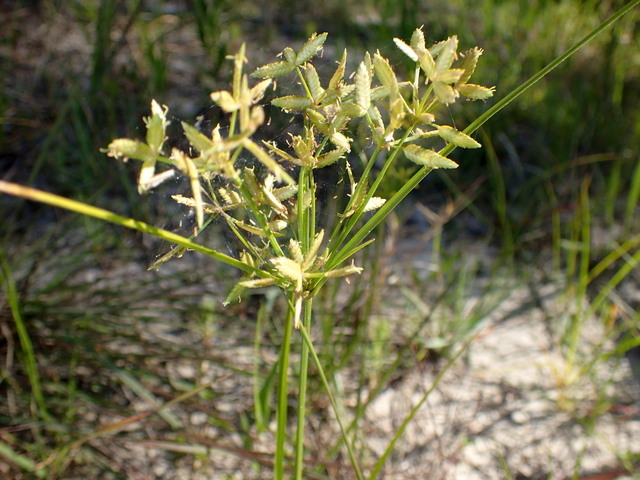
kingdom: Plantae
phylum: Tracheophyta
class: Liliopsida
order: Poales
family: Cyperaceae
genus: Cyperus
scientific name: Cyperus lecontei
